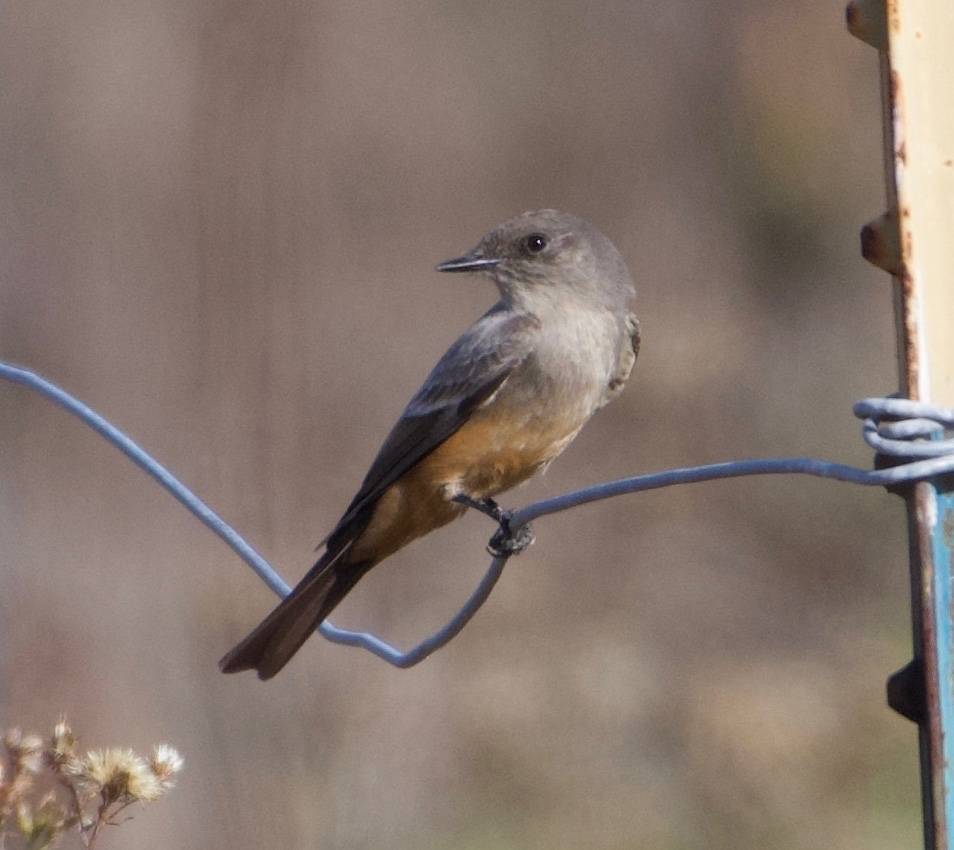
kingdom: Animalia
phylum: Chordata
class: Aves
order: Passeriformes
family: Tyrannidae
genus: Sayornis
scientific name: Sayornis saya
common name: Say's phoebe
